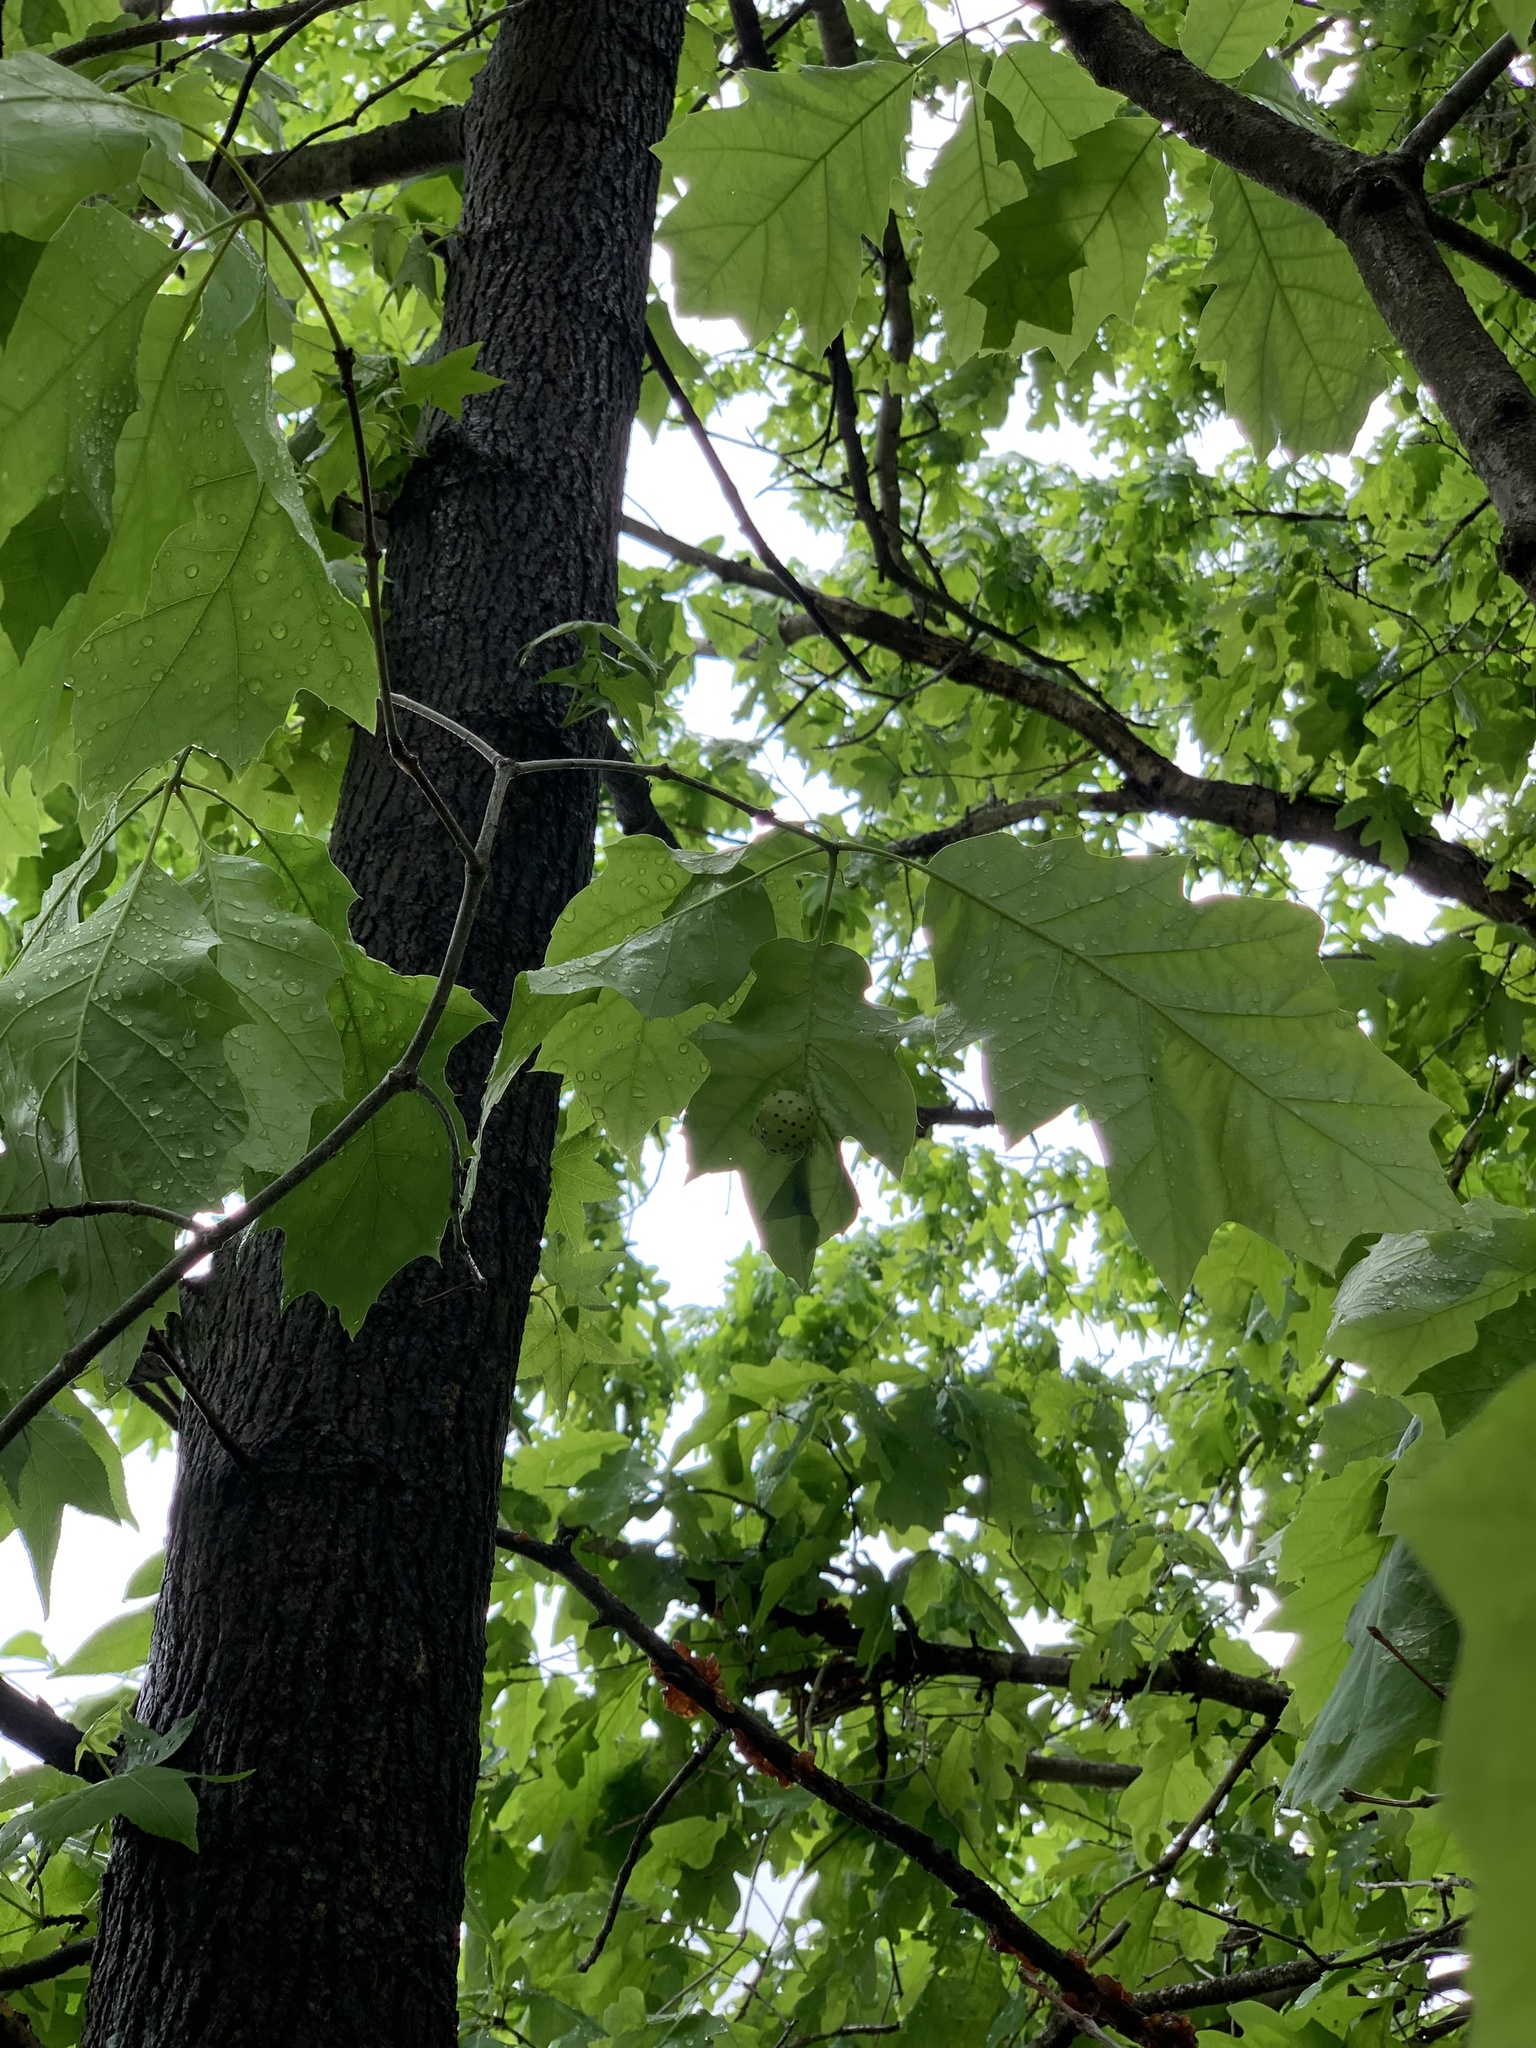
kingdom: Animalia
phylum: Arthropoda
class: Insecta
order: Hymenoptera
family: Cynipidae
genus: Amphibolips
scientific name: Amphibolips
